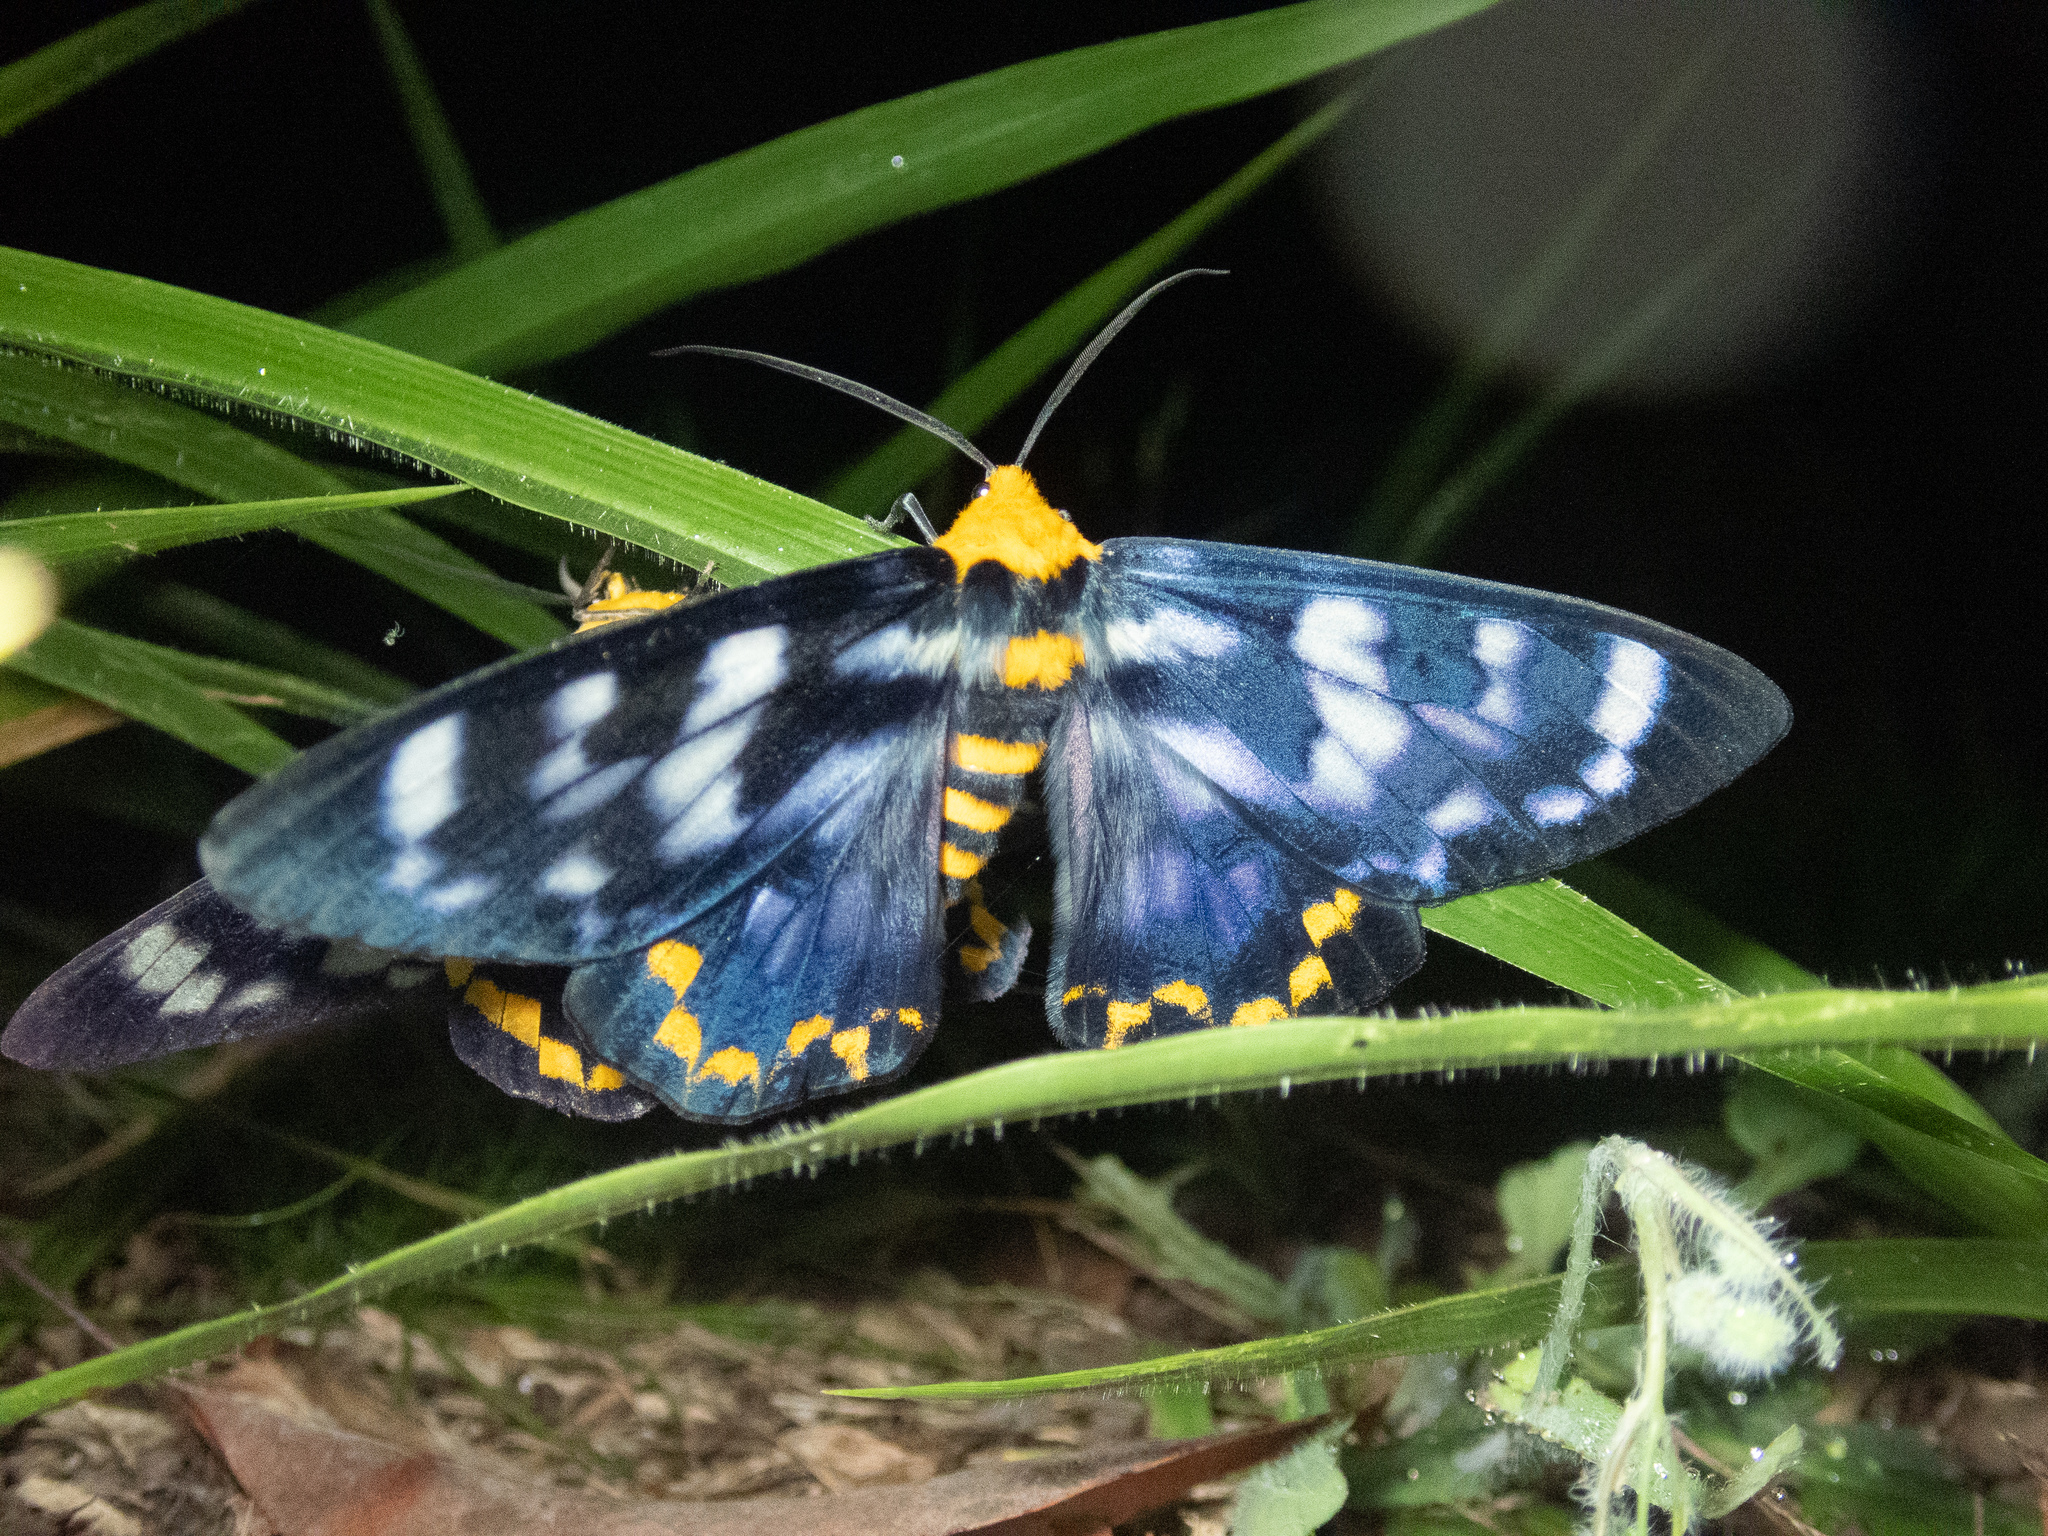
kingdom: Animalia
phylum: Arthropoda
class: Insecta
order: Lepidoptera
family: Geometridae
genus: Dysphania
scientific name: Dysphania numana
